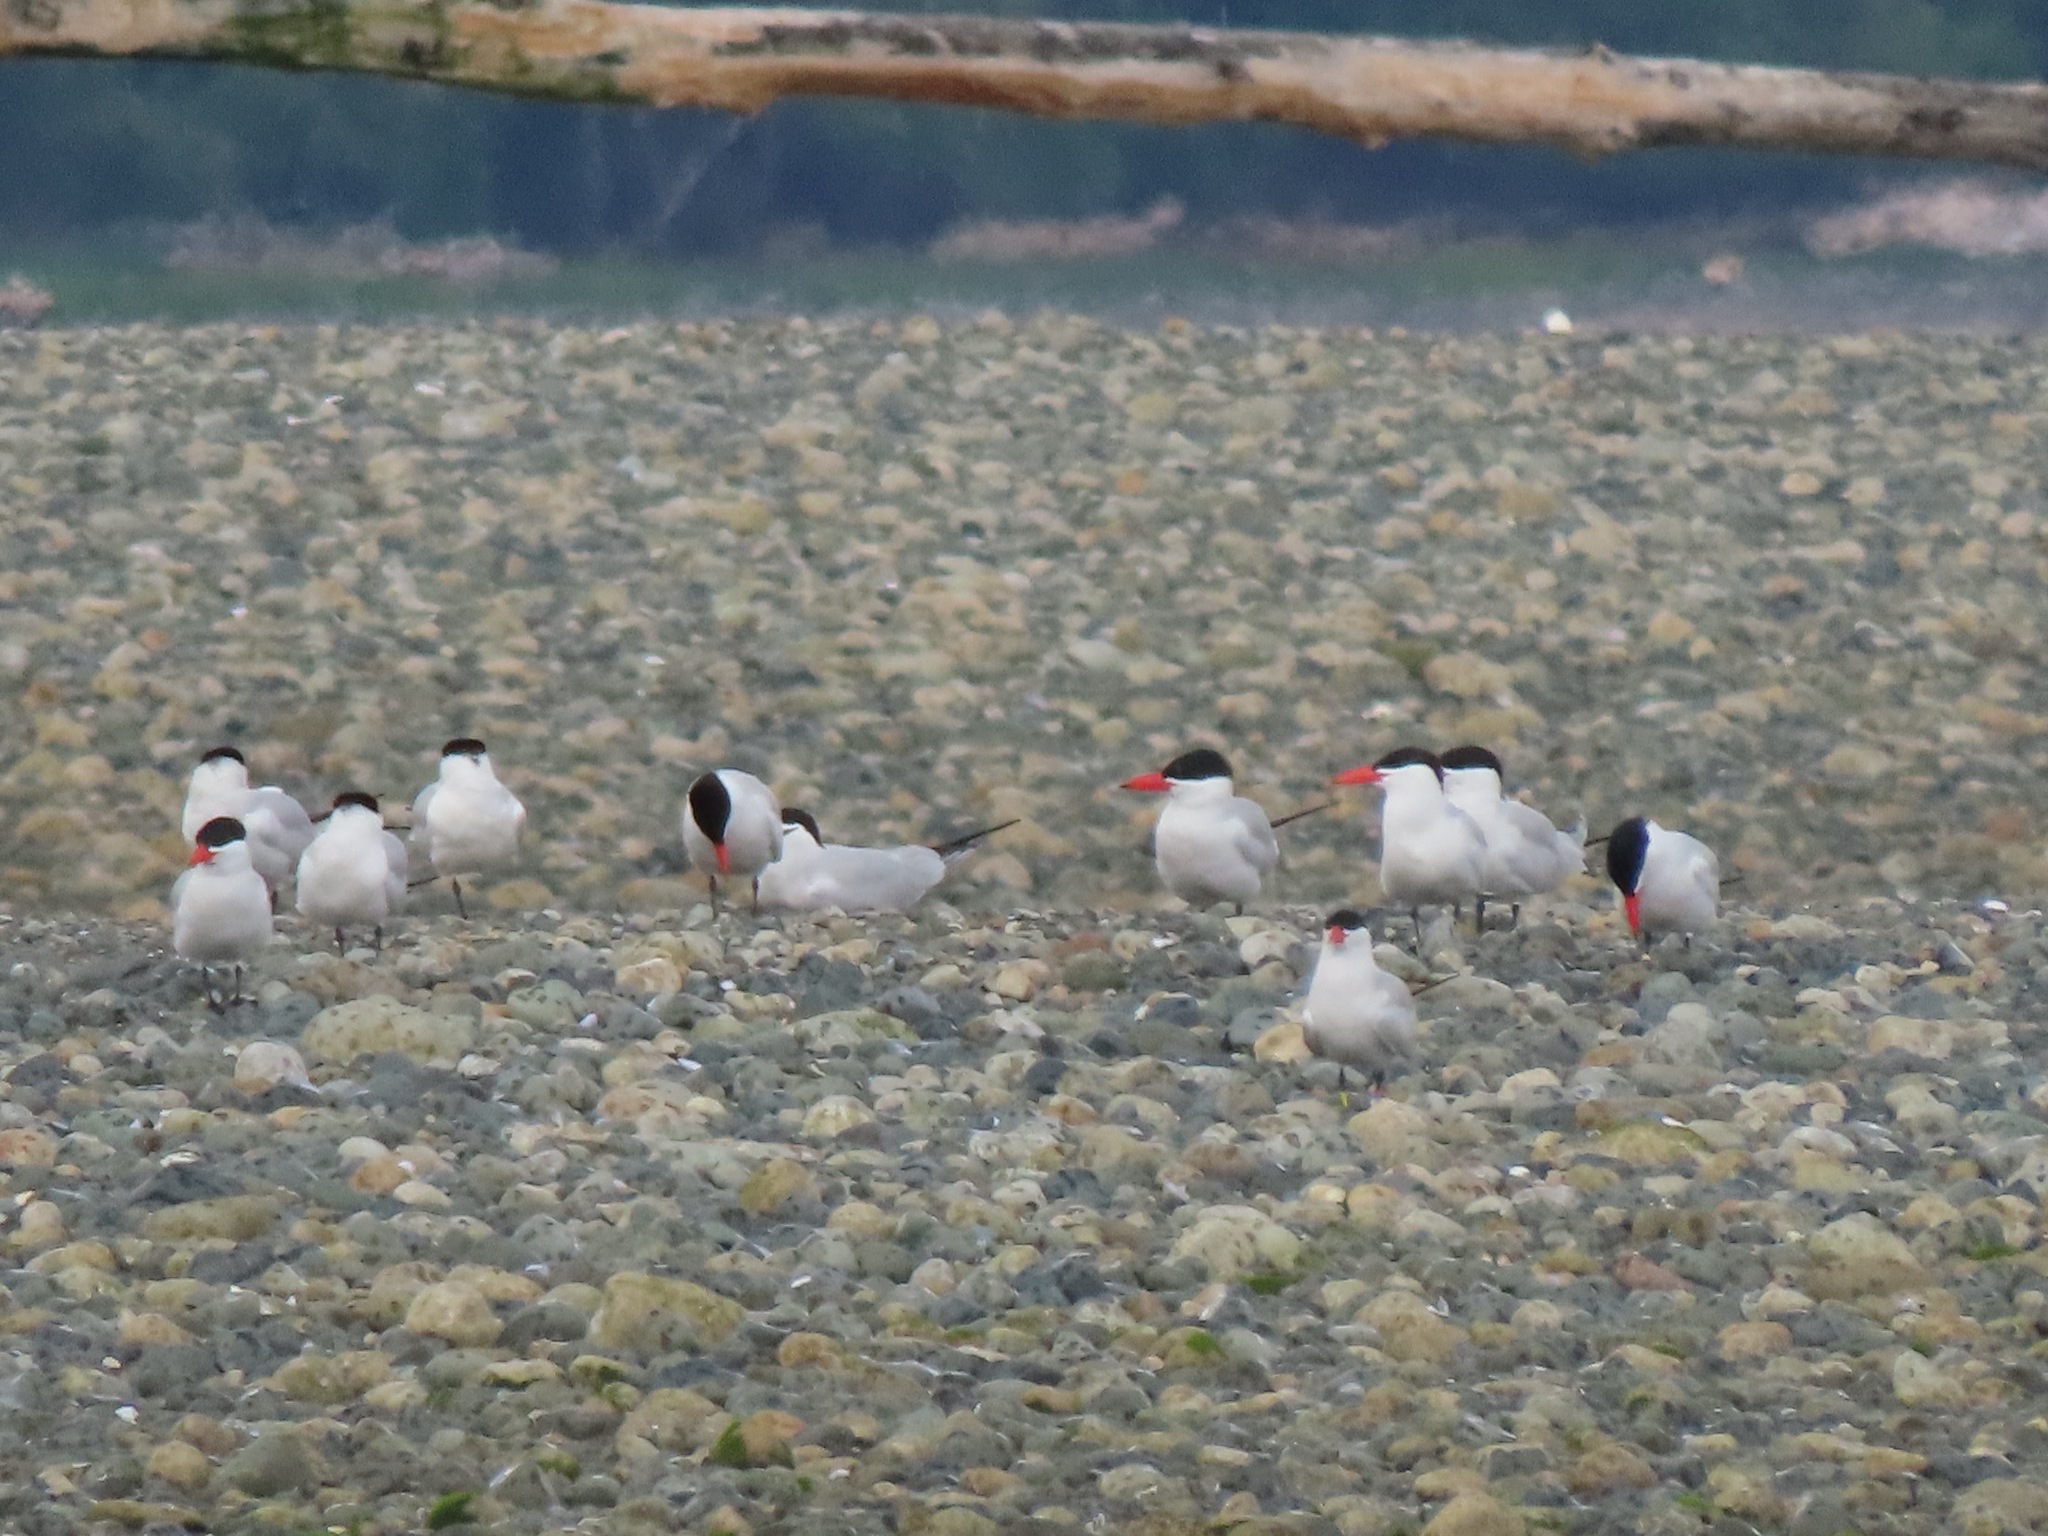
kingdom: Animalia
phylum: Chordata
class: Aves
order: Charadriiformes
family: Laridae
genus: Hydroprogne
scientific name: Hydroprogne caspia
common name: Caspian tern
